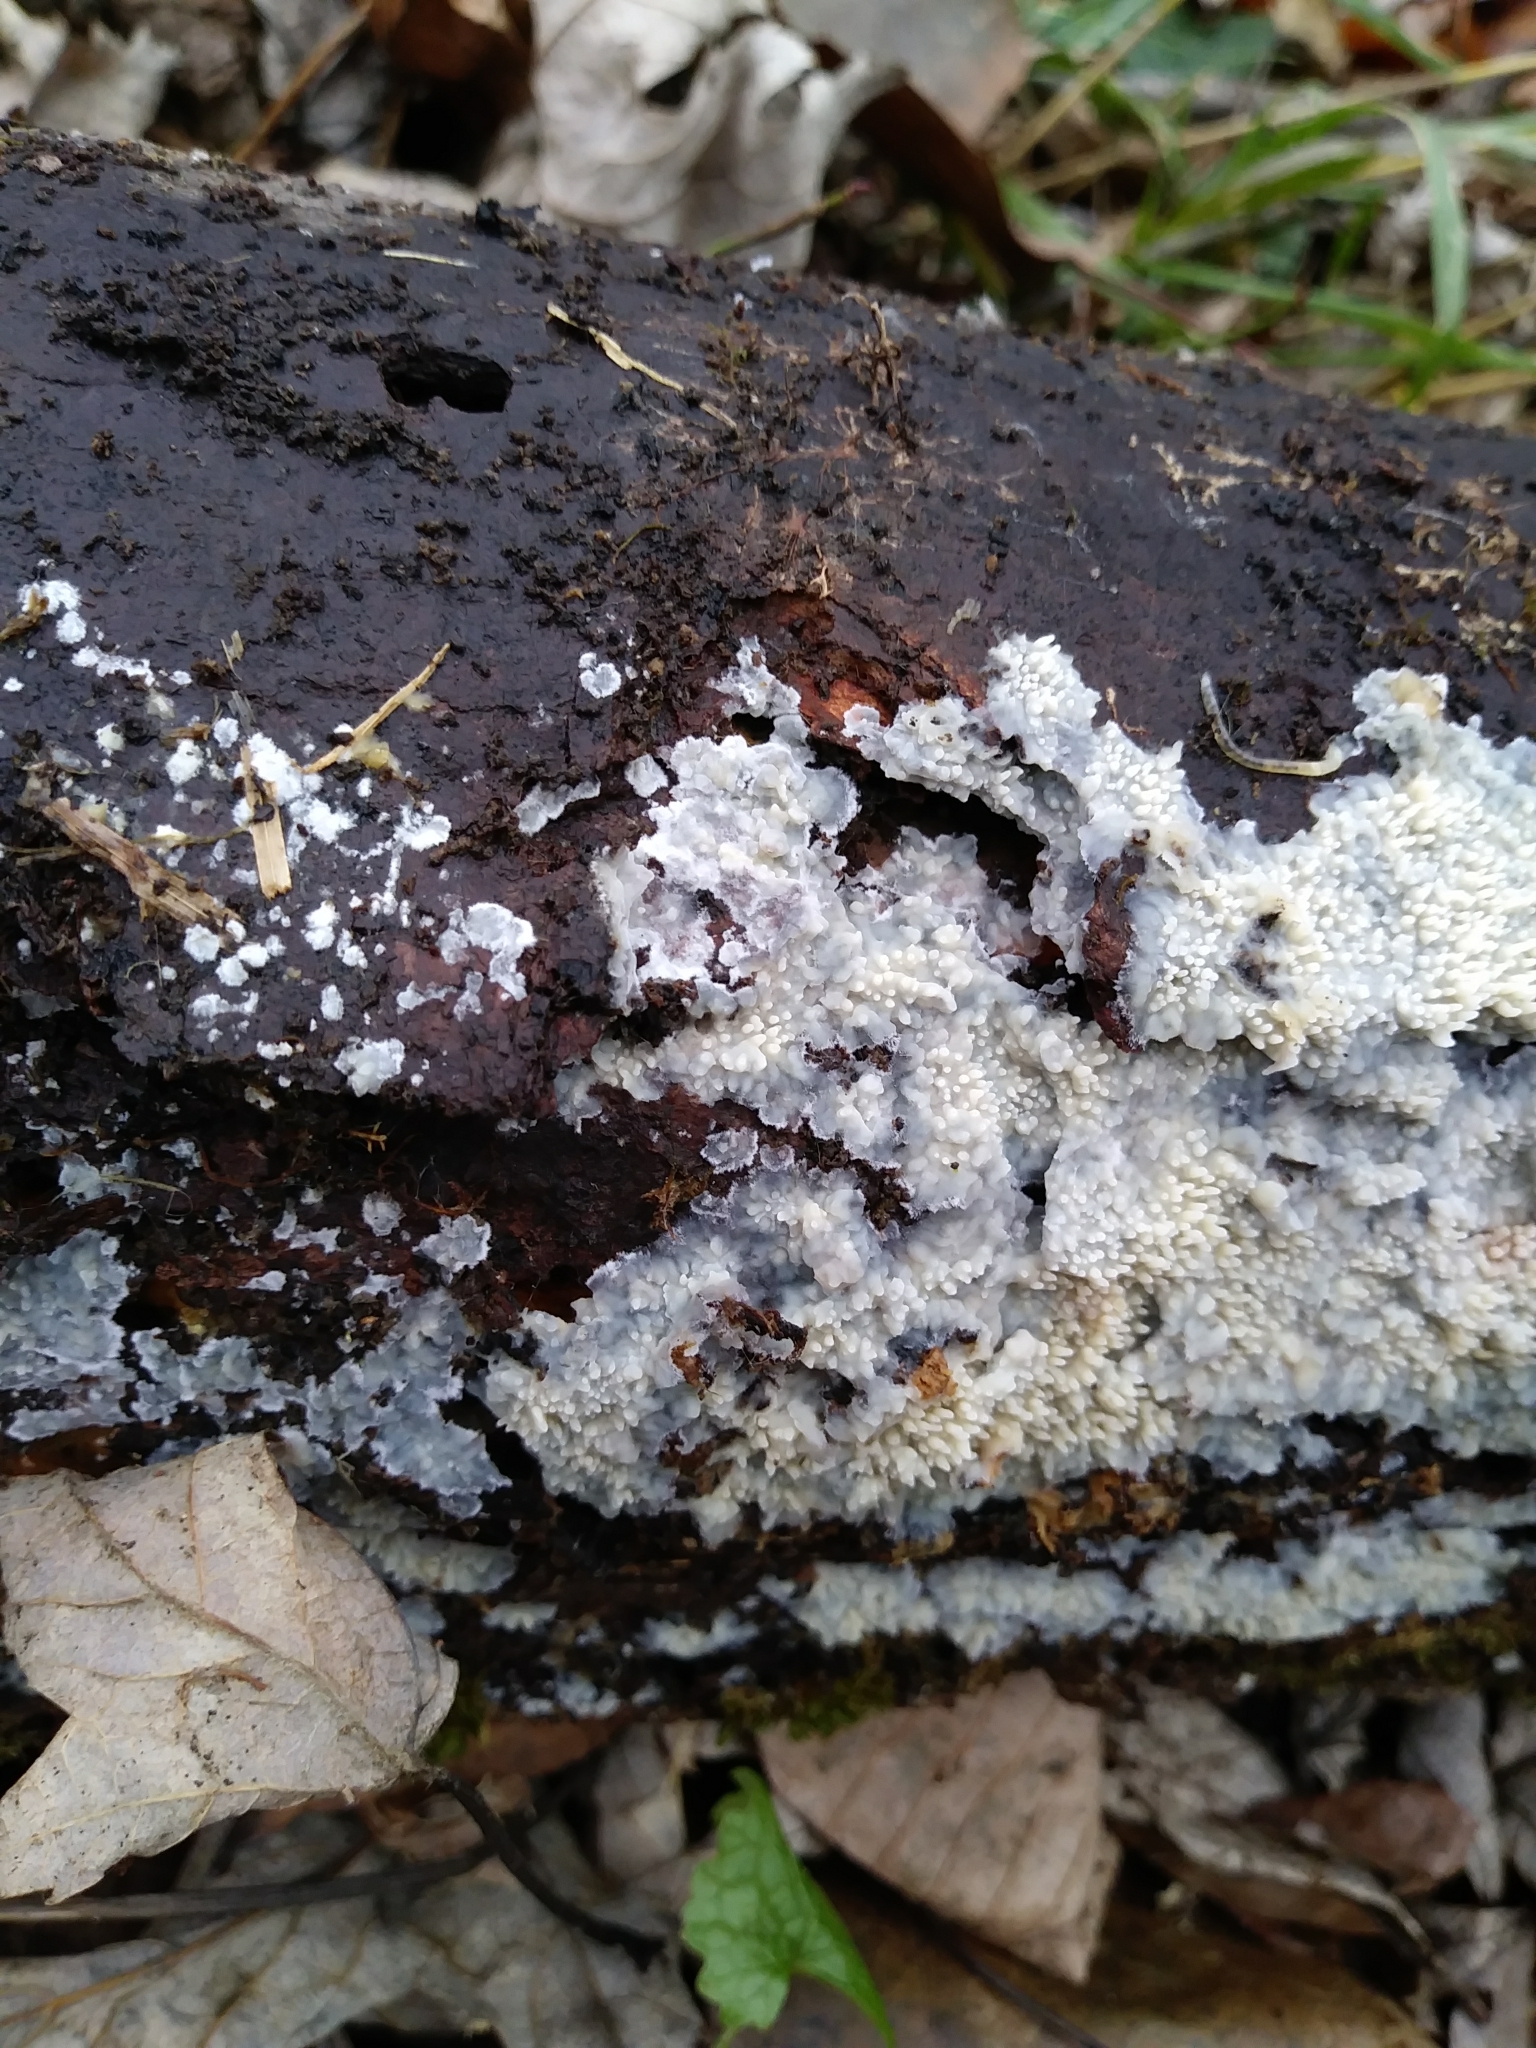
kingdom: Fungi
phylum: Basidiomycota
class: Agaricomycetes
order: Polyporales
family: Meruliaceae
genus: Mycoacia
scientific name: Mycoacia uda
